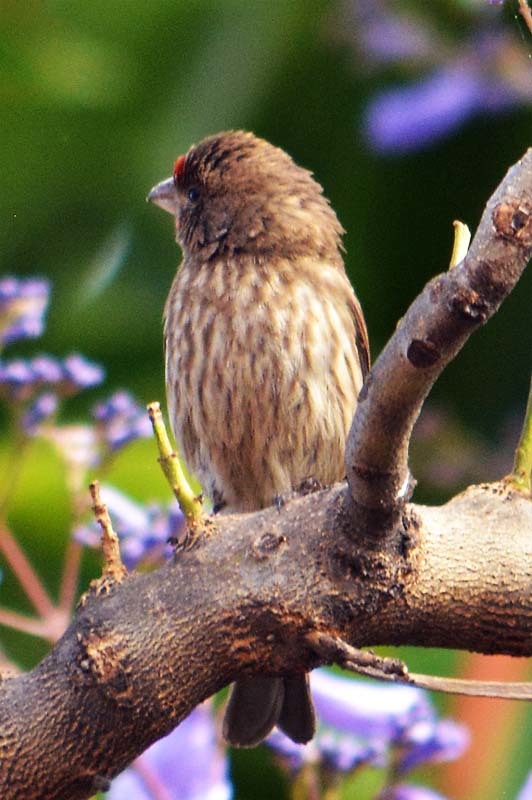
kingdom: Animalia
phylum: Chordata
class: Aves
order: Passeriformes
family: Fringillidae
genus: Haemorhous
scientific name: Haemorhous mexicanus
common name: House finch
